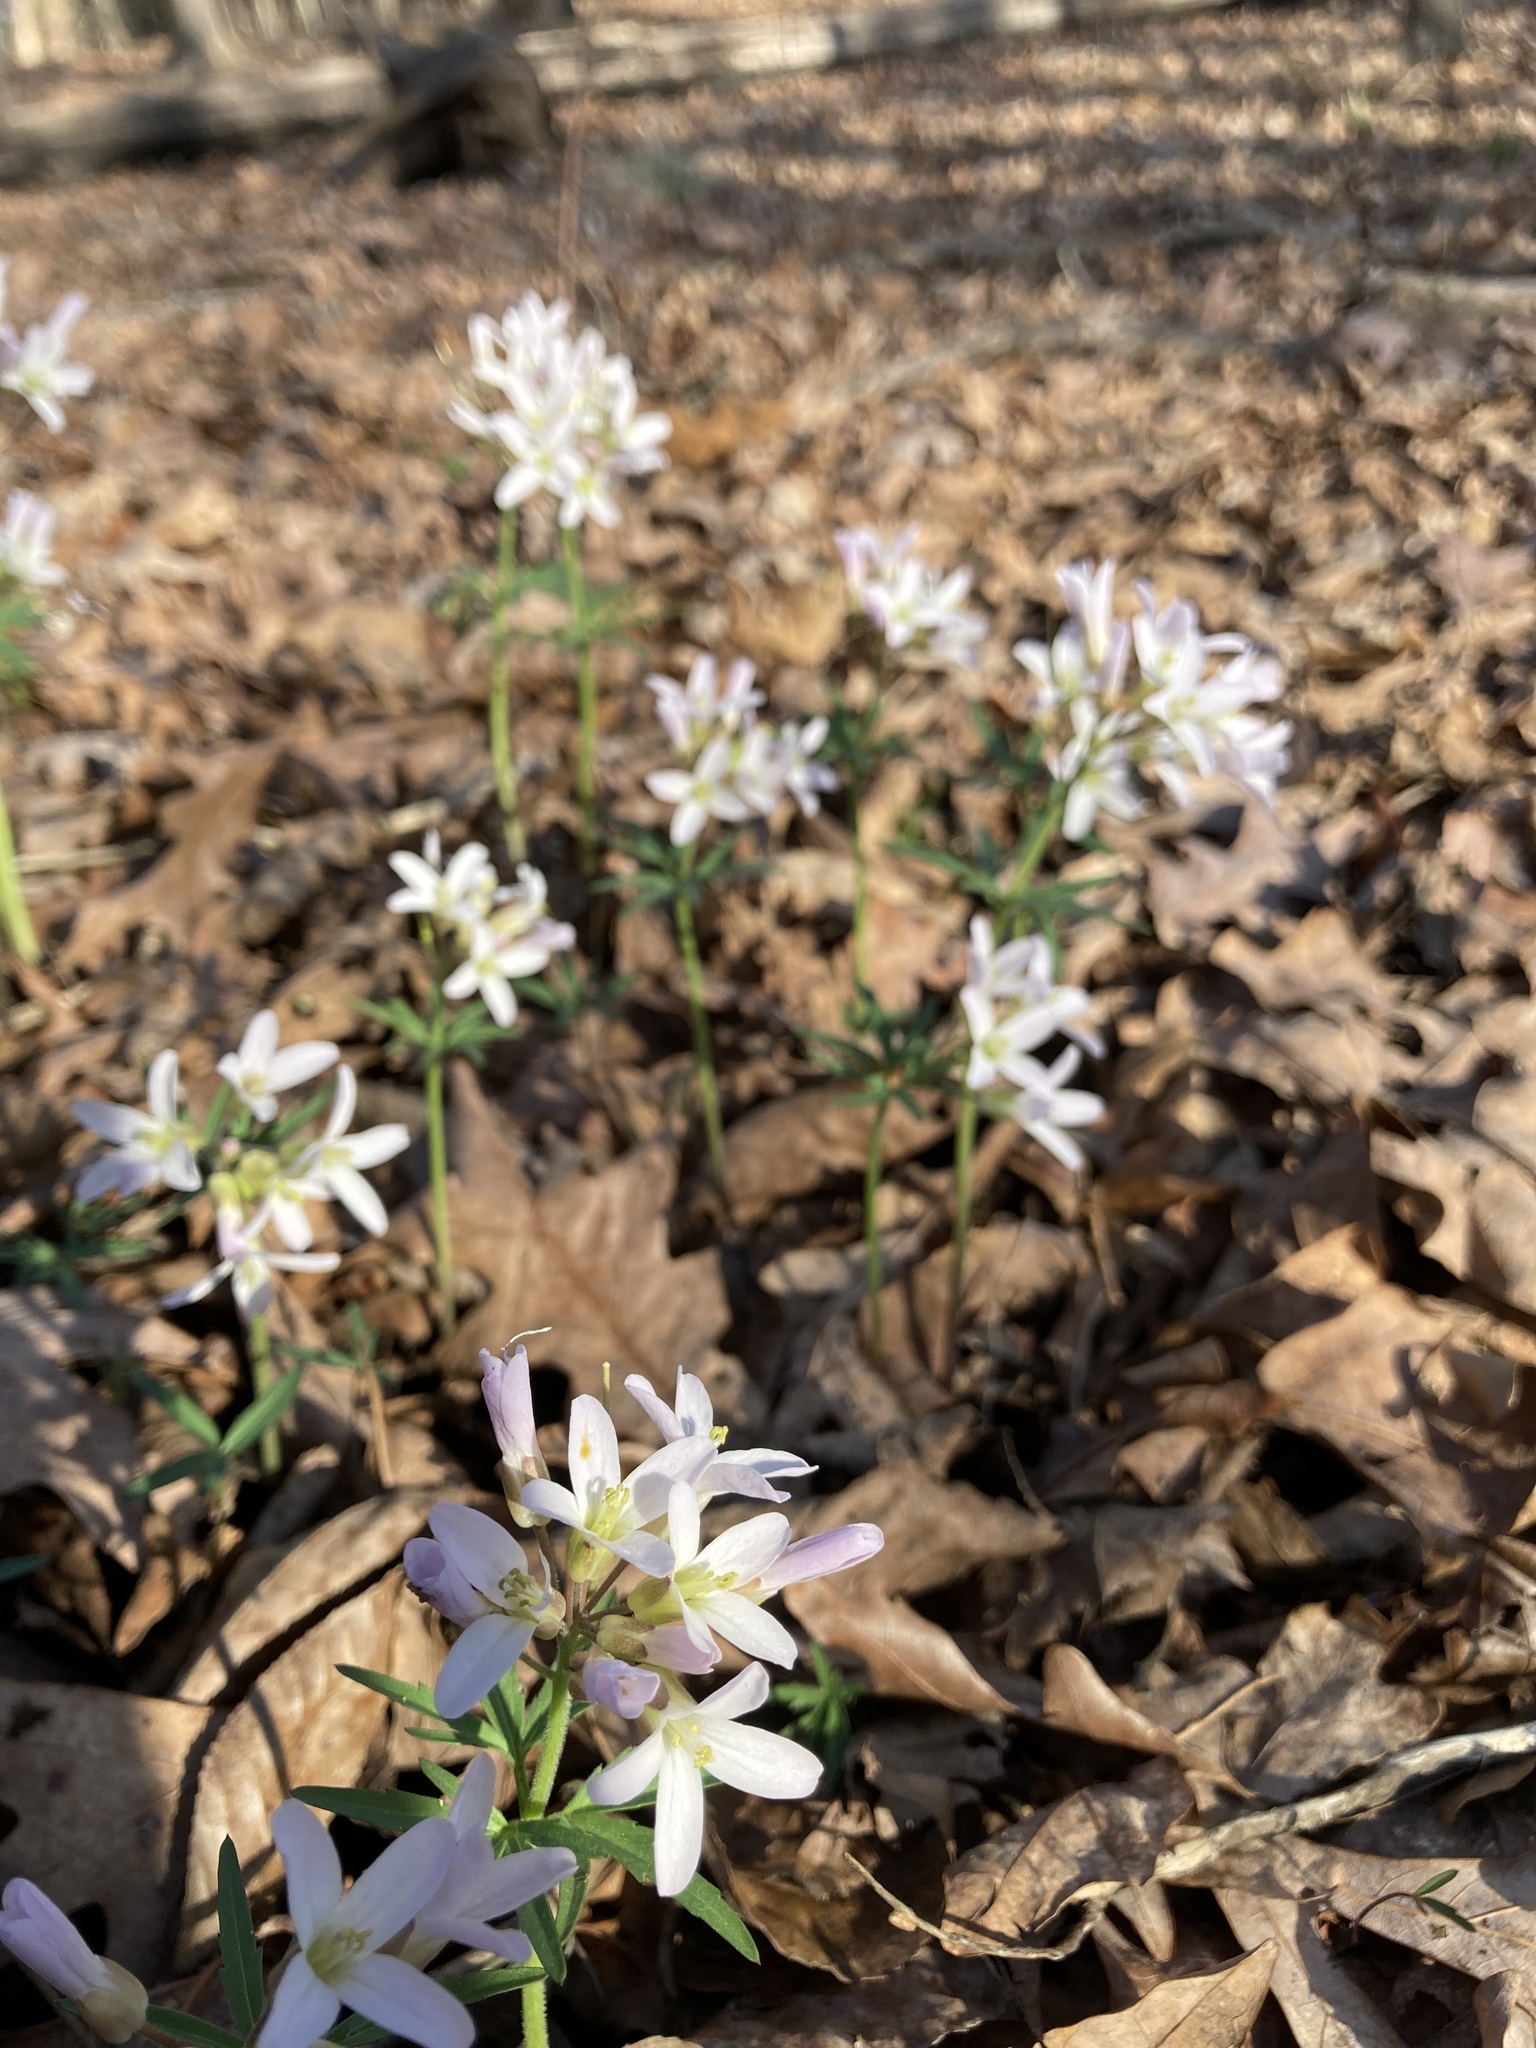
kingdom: Plantae
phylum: Tracheophyta
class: Magnoliopsida
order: Brassicales
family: Brassicaceae
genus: Cardamine
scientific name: Cardamine concatenata
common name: Cut-leaf toothcup
